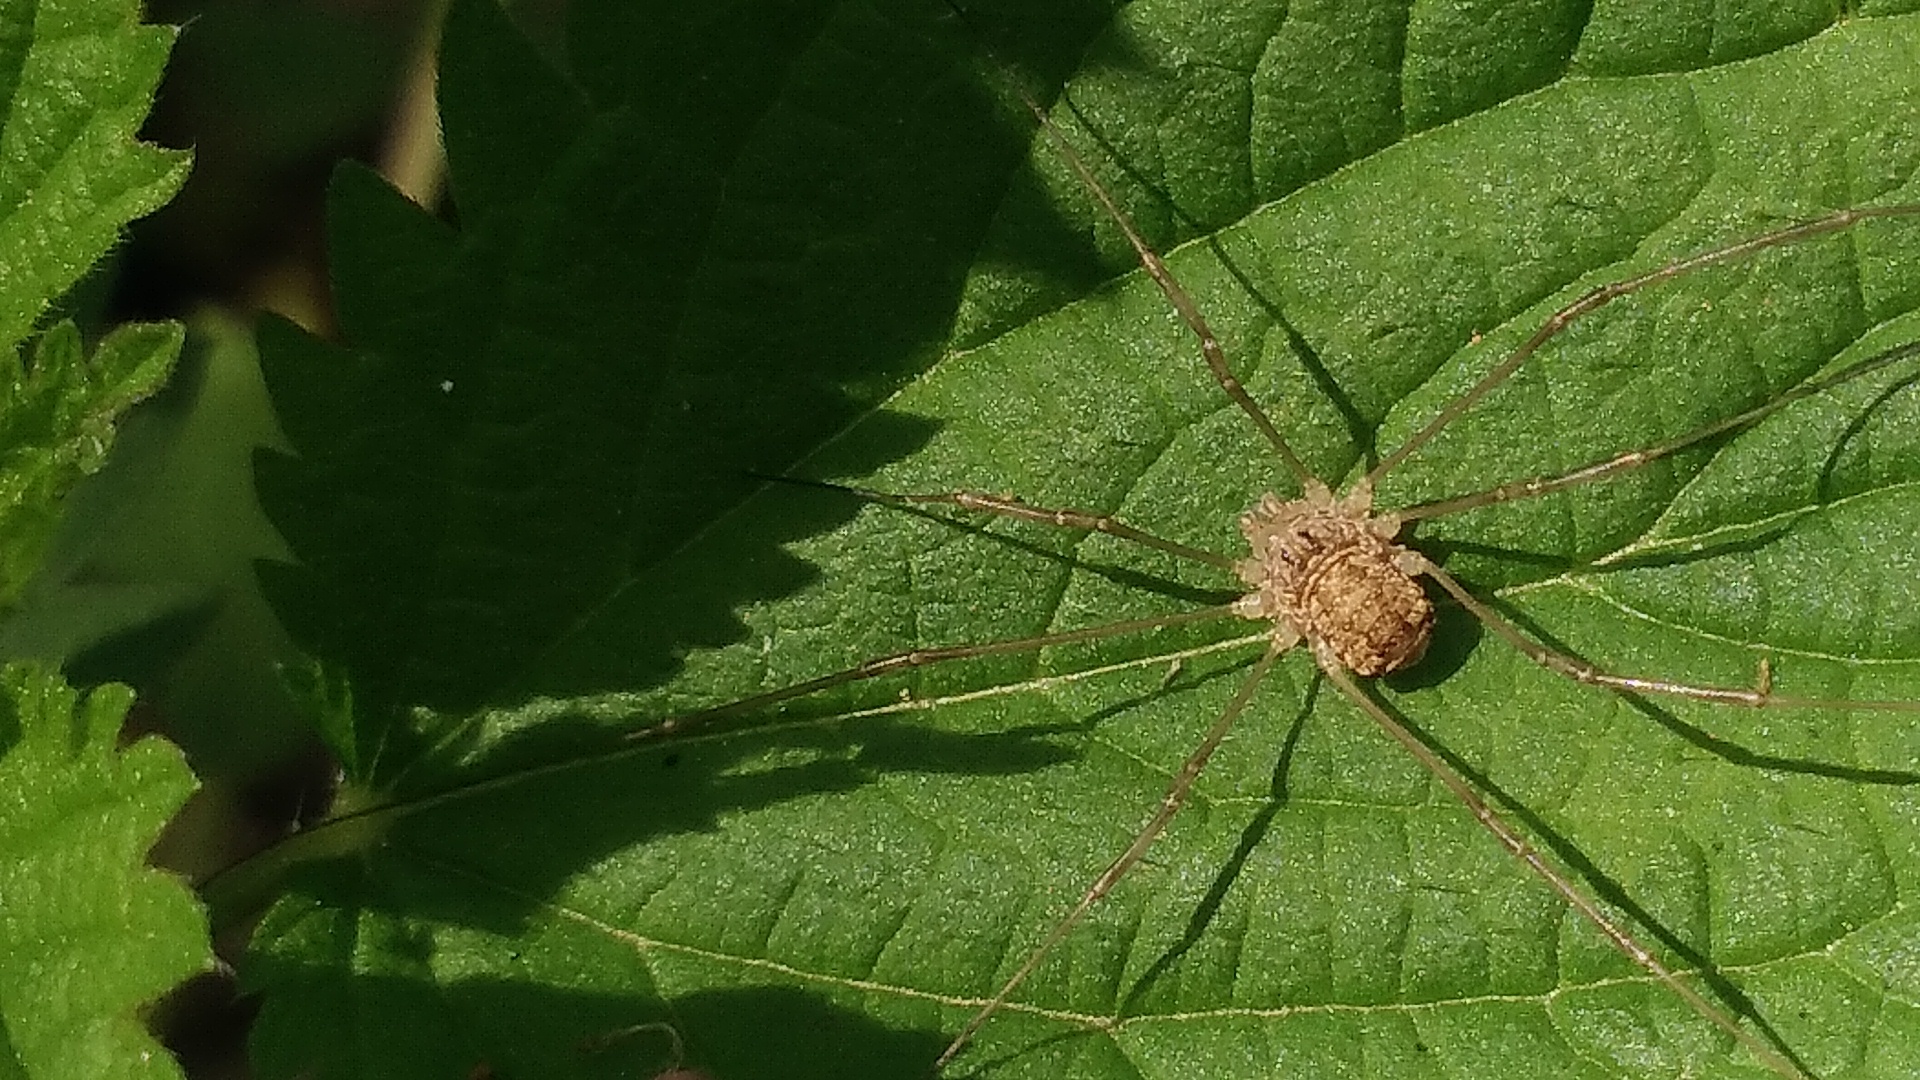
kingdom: Animalia
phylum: Arthropoda
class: Arachnida
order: Opiliones
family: Phalangiidae
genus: Rilaena
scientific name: Rilaena triangularis
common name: Spring harvestman
